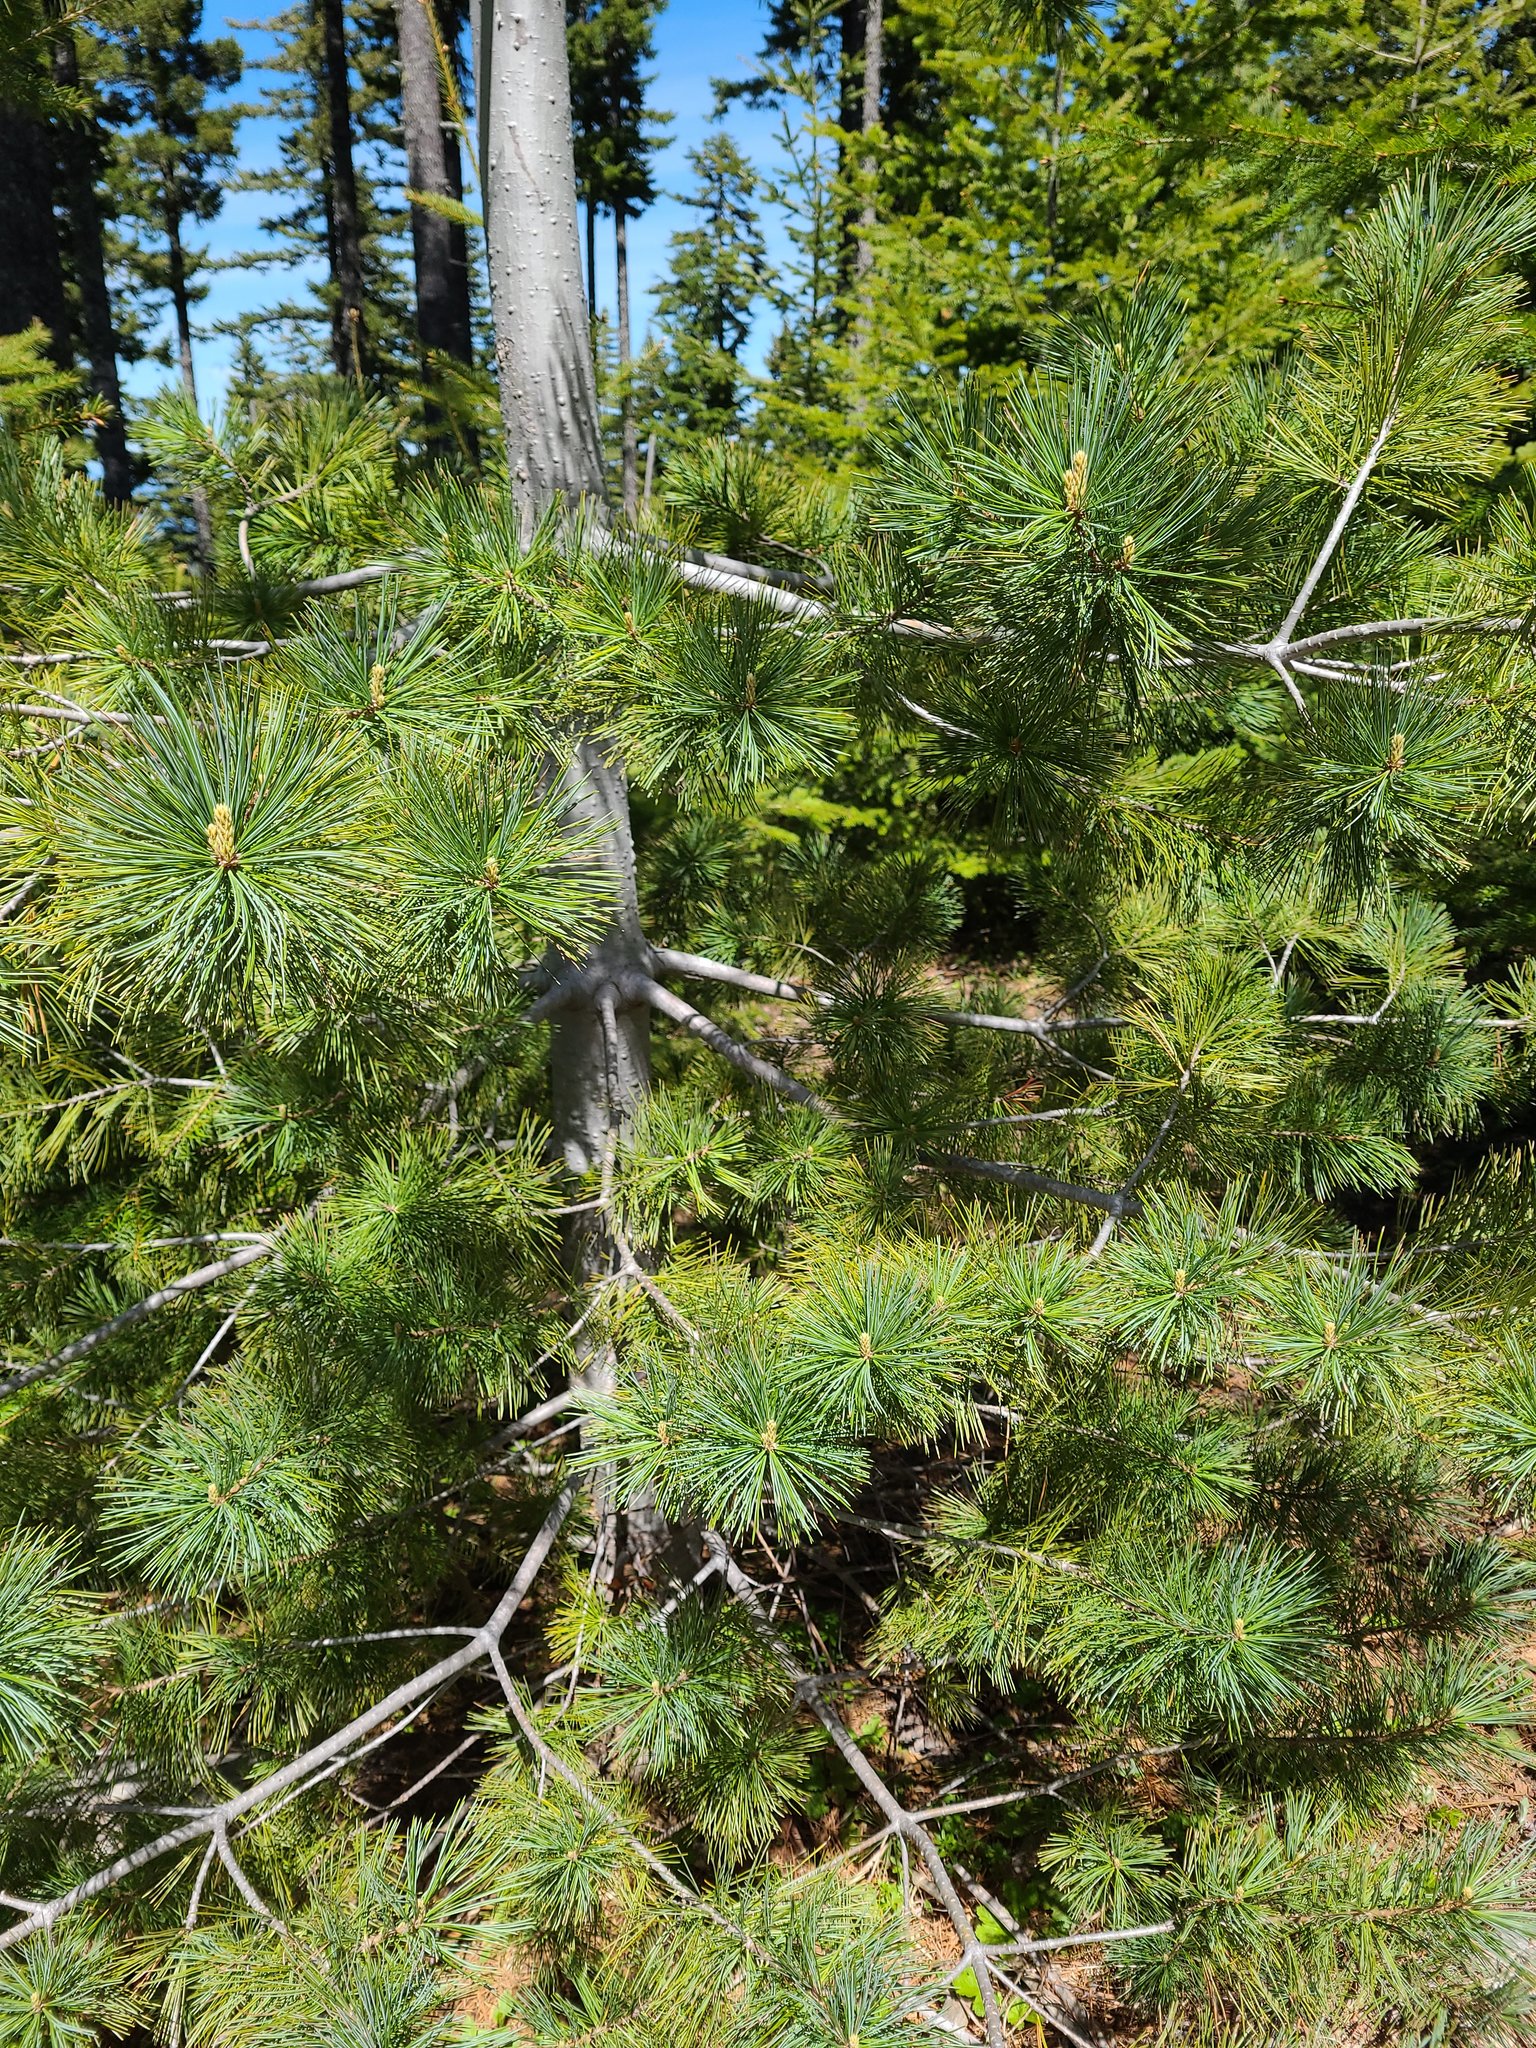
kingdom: Plantae
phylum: Tracheophyta
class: Pinopsida
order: Pinales
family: Pinaceae
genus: Pinus
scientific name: Pinus monticola
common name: Western white pine
